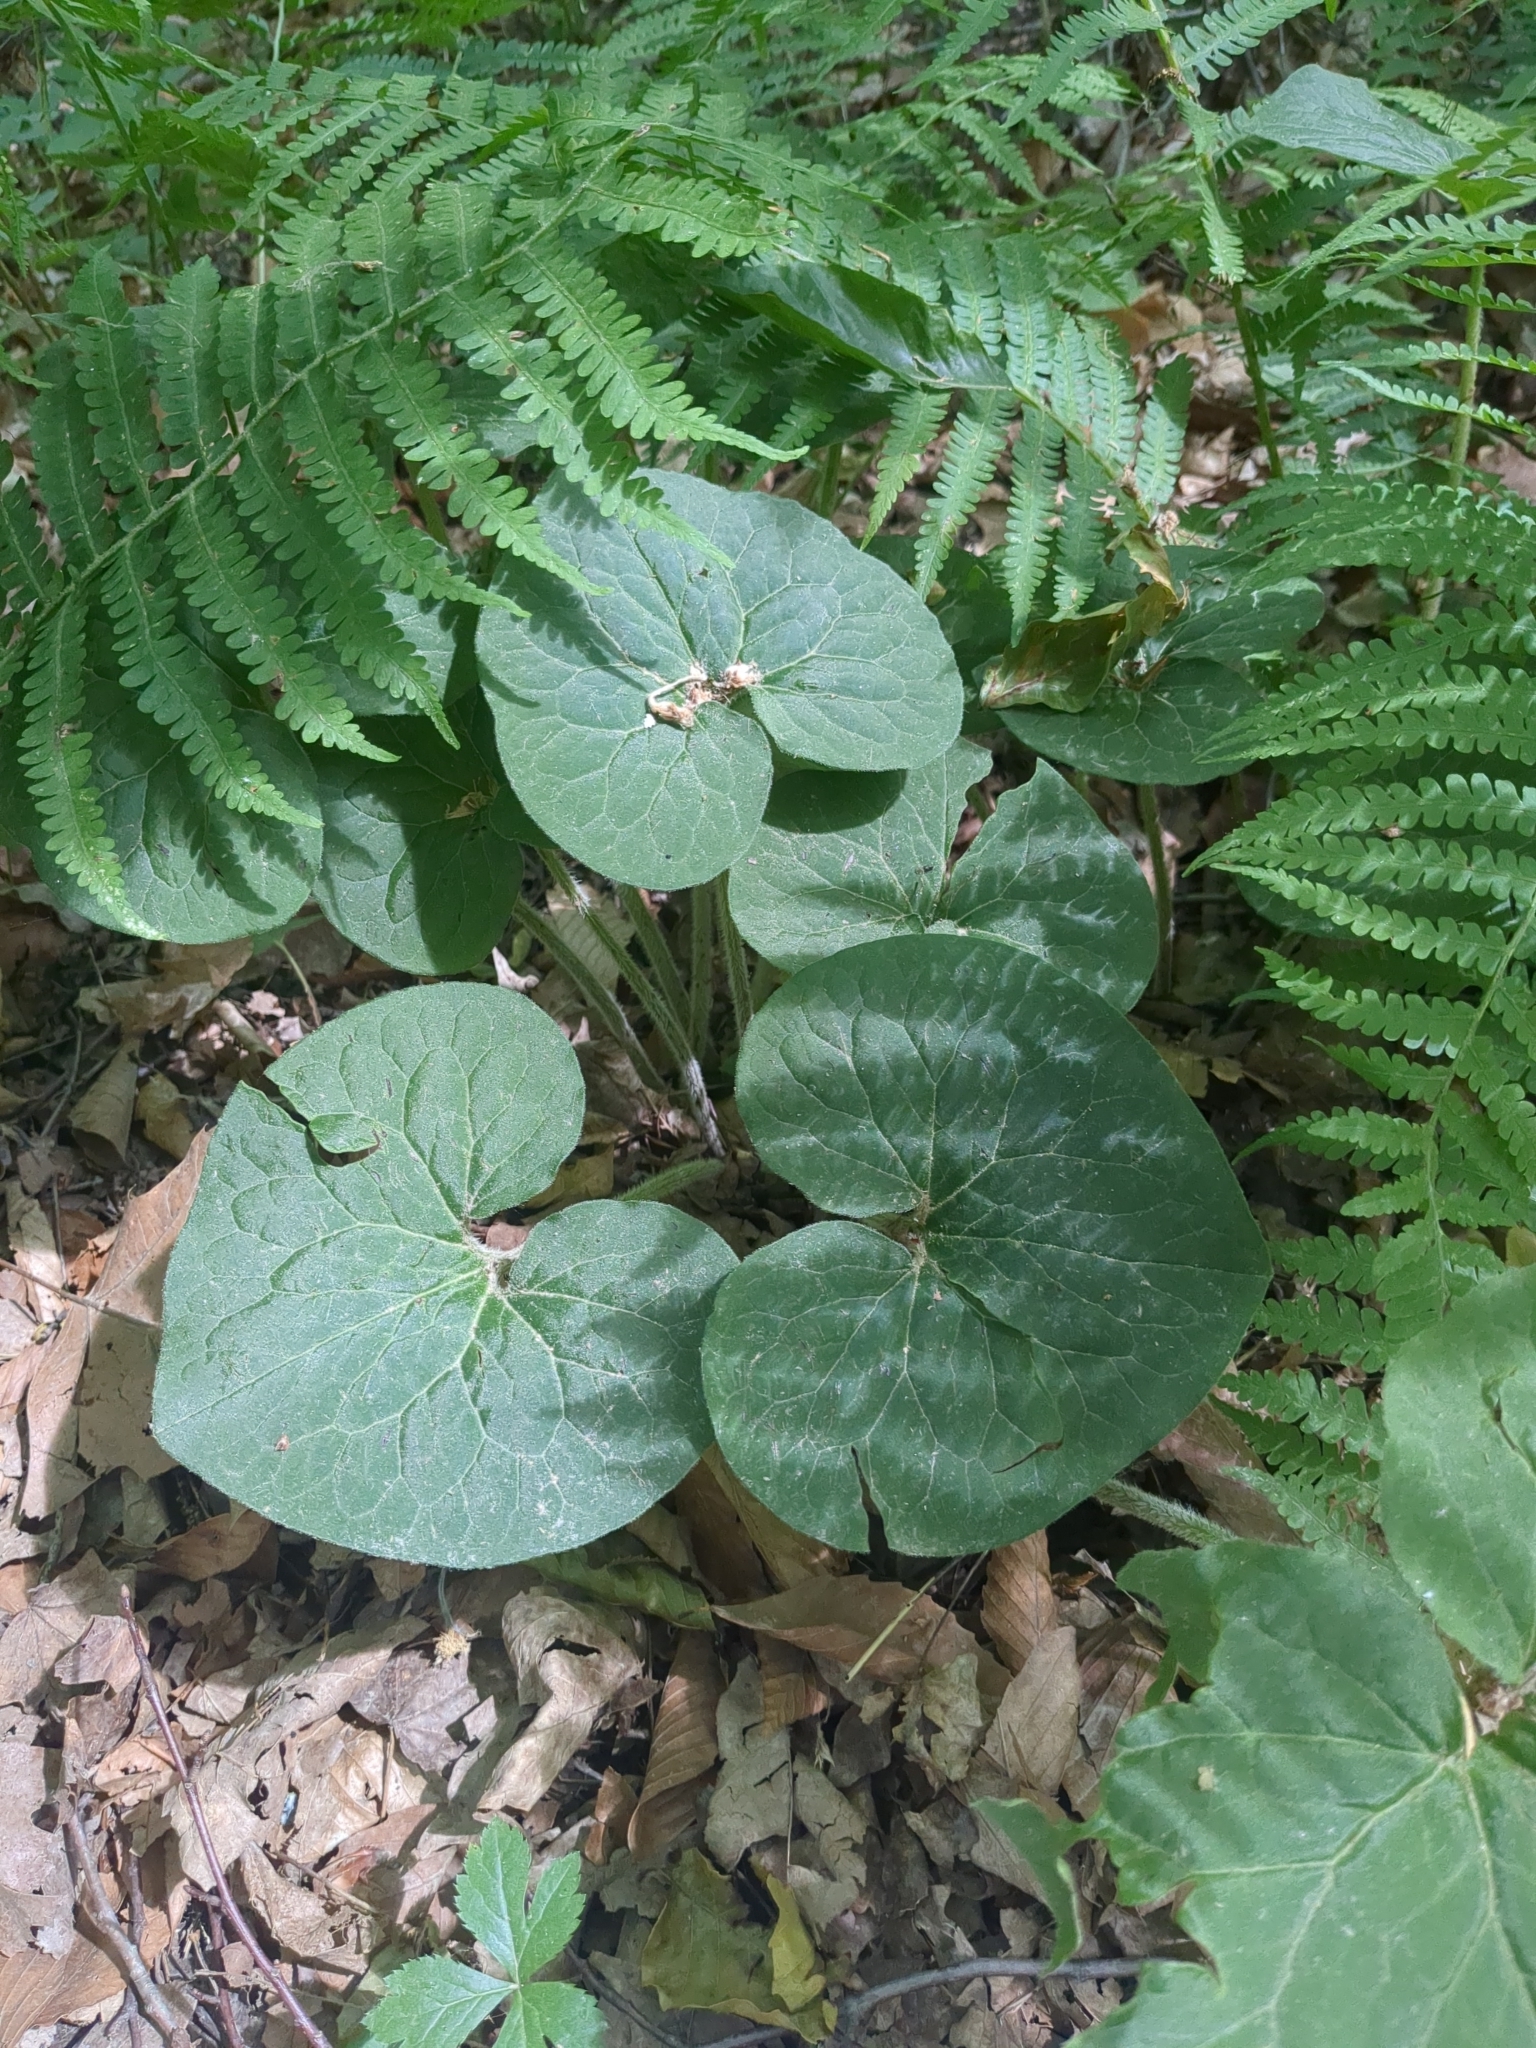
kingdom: Plantae
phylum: Tracheophyta
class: Magnoliopsida
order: Piperales
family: Aristolochiaceae
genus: Asarum
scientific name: Asarum canadense
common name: Wild ginger
